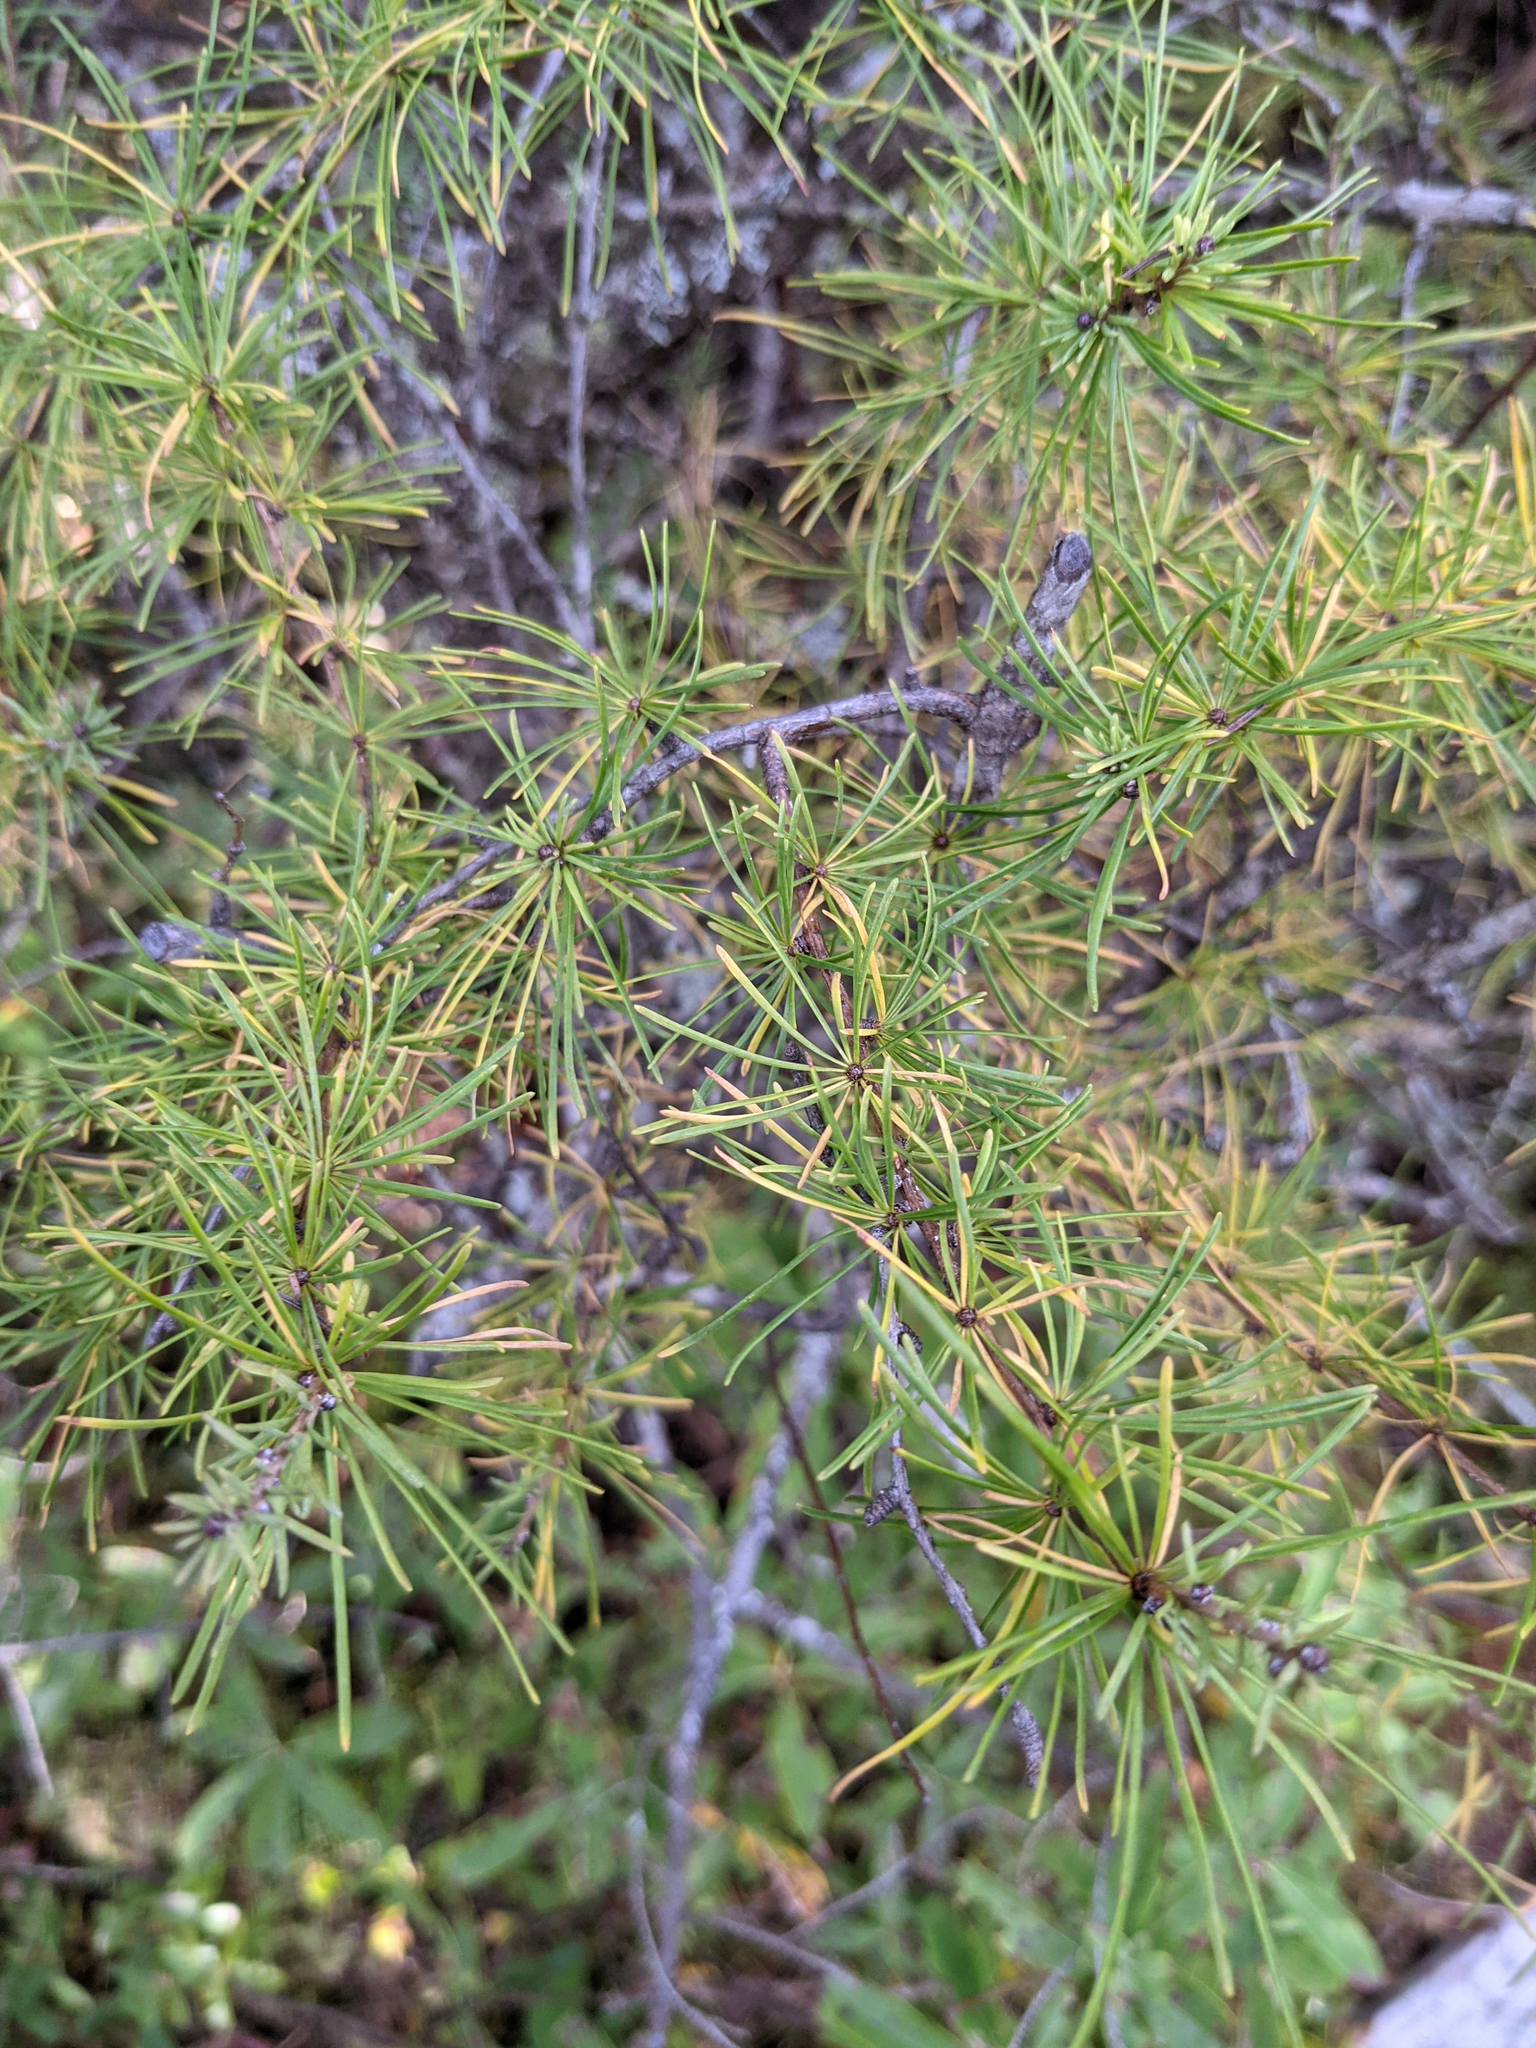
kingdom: Plantae
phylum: Tracheophyta
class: Pinopsida
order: Pinales
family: Pinaceae
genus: Larix
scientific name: Larix laricina
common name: American larch
